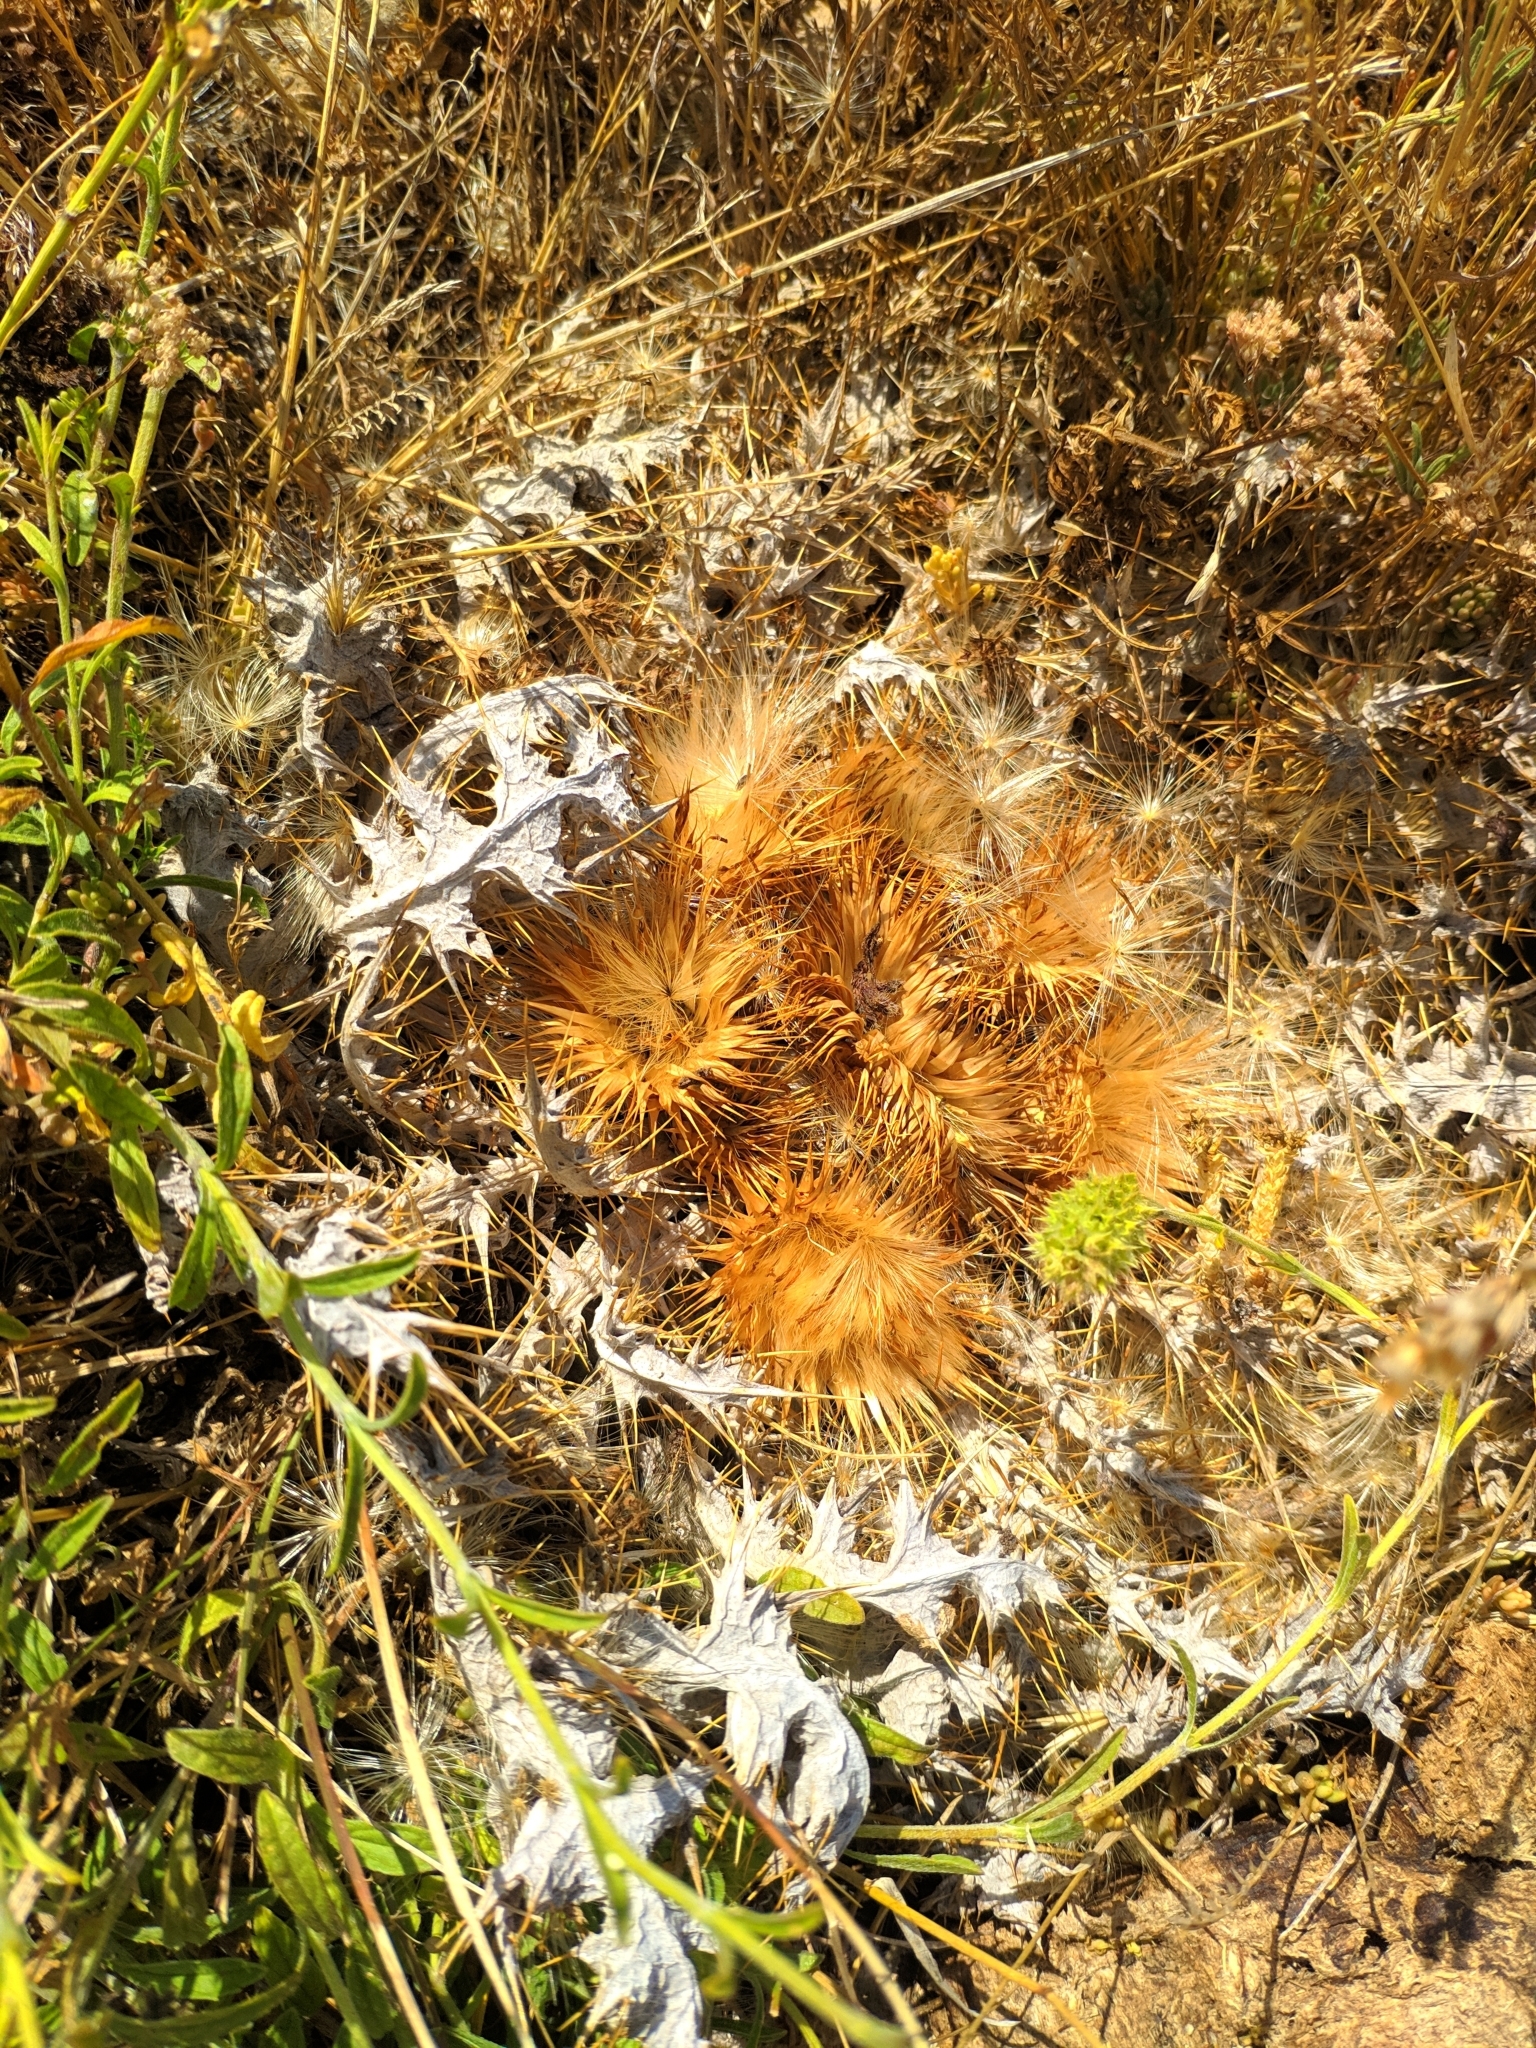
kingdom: Plantae
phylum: Tracheophyta
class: Magnoliopsida
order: Asterales
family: Asteraceae
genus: Onopordum
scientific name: Onopordum acaulon
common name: Horse thistle
